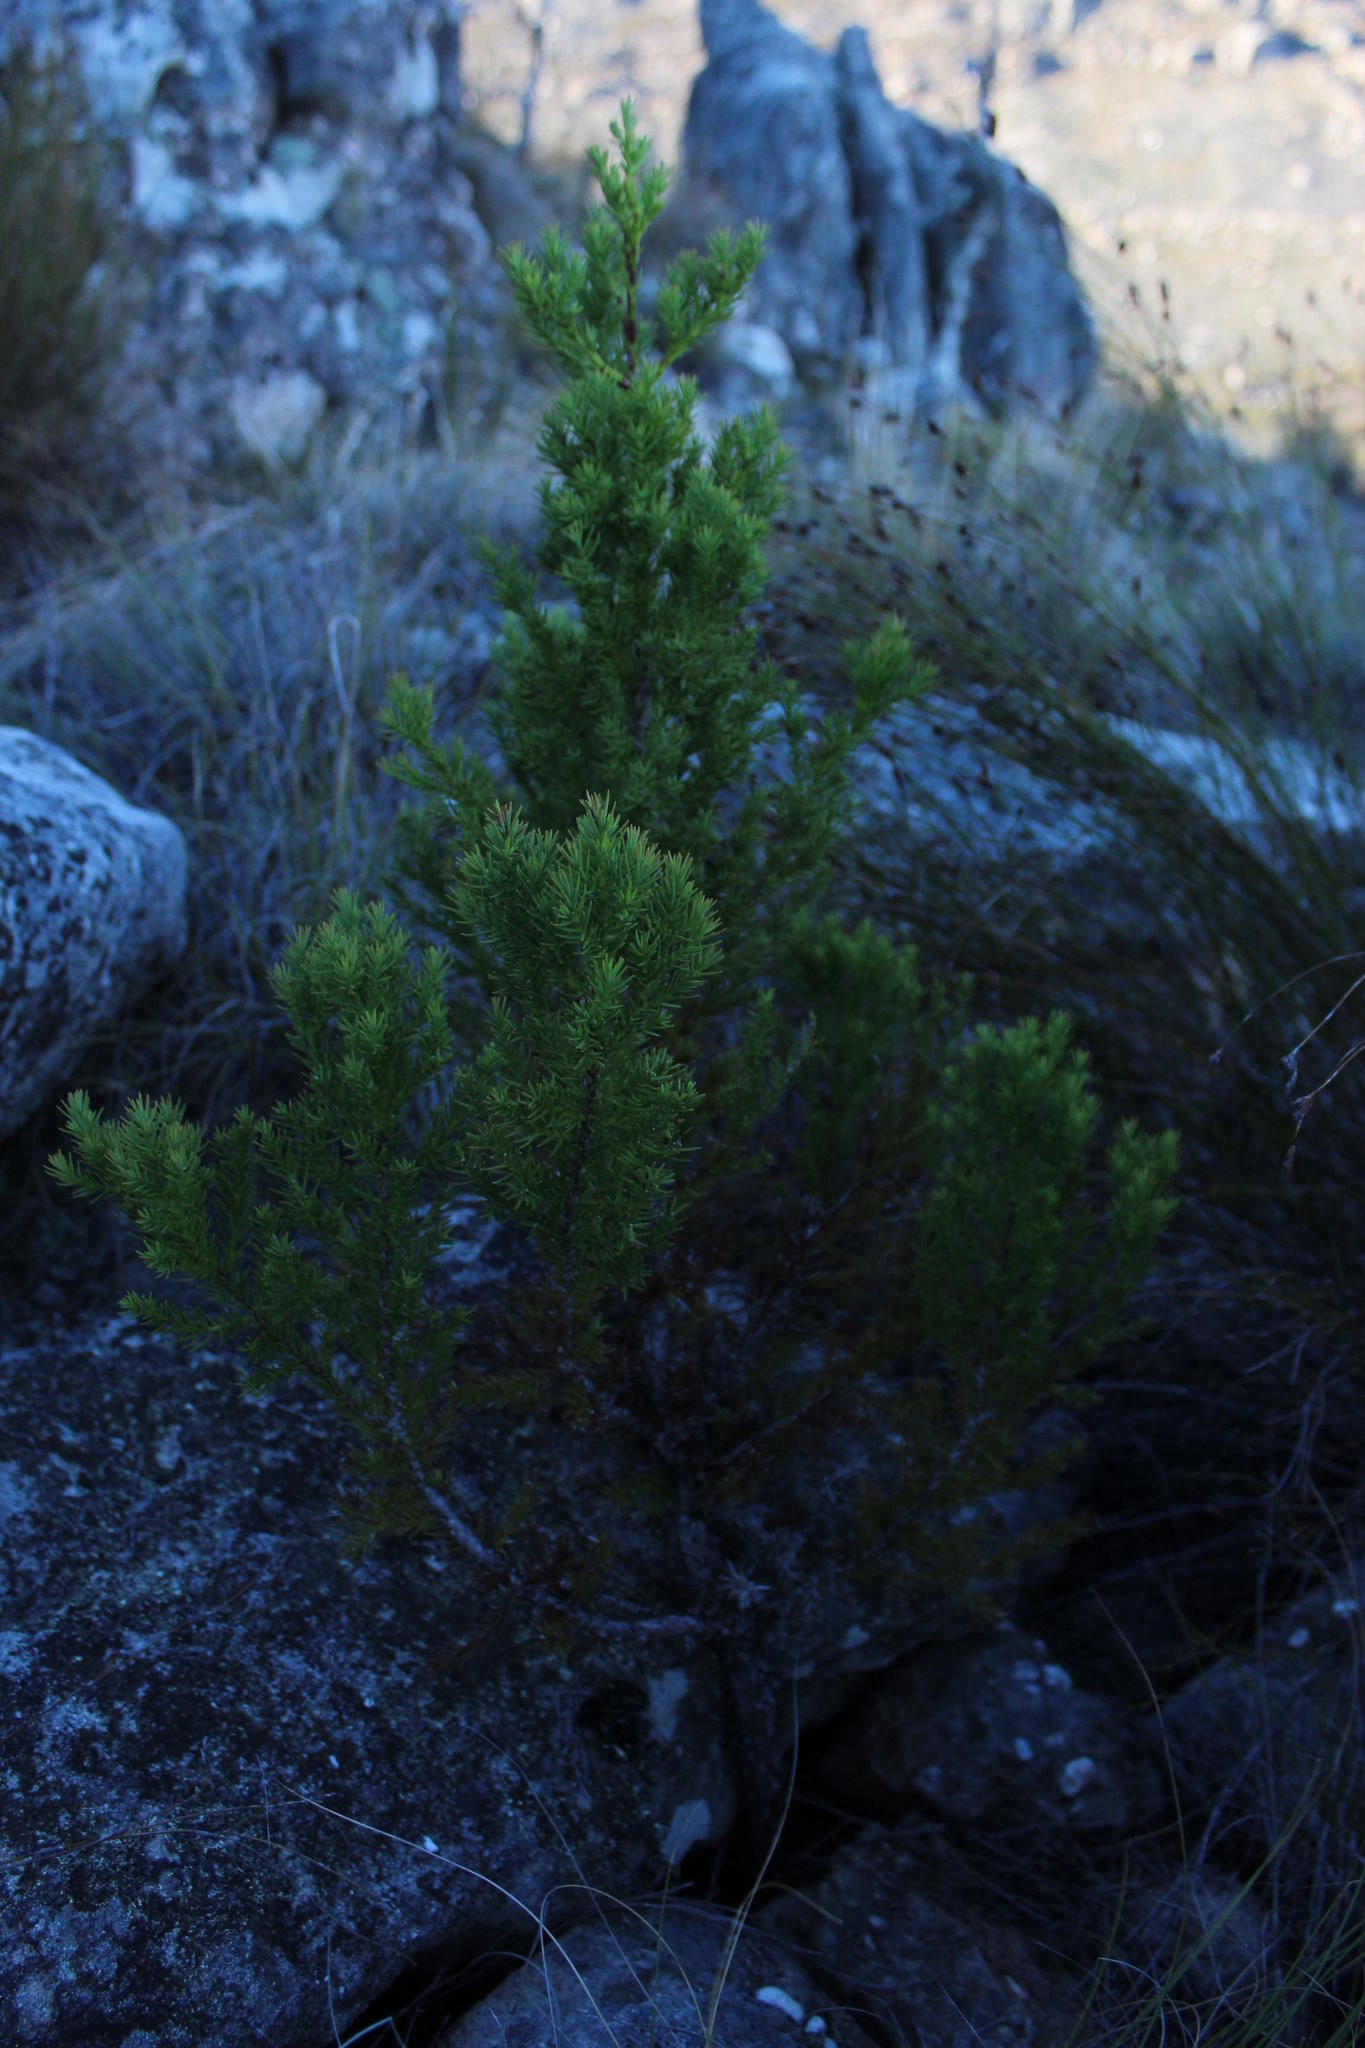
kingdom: Plantae
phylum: Tracheophyta
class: Pinopsida
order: Pinales
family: Cupressaceae
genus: Widdringtonia
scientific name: Widdringtonia nodiflora
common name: Cape cypress
